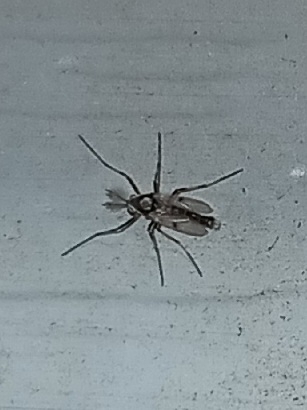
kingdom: Animalia
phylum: Arthropoda
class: Insecta
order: Diptera
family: Chironomidae
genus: Coelotanypus
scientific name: Coelotanypus scapularis
